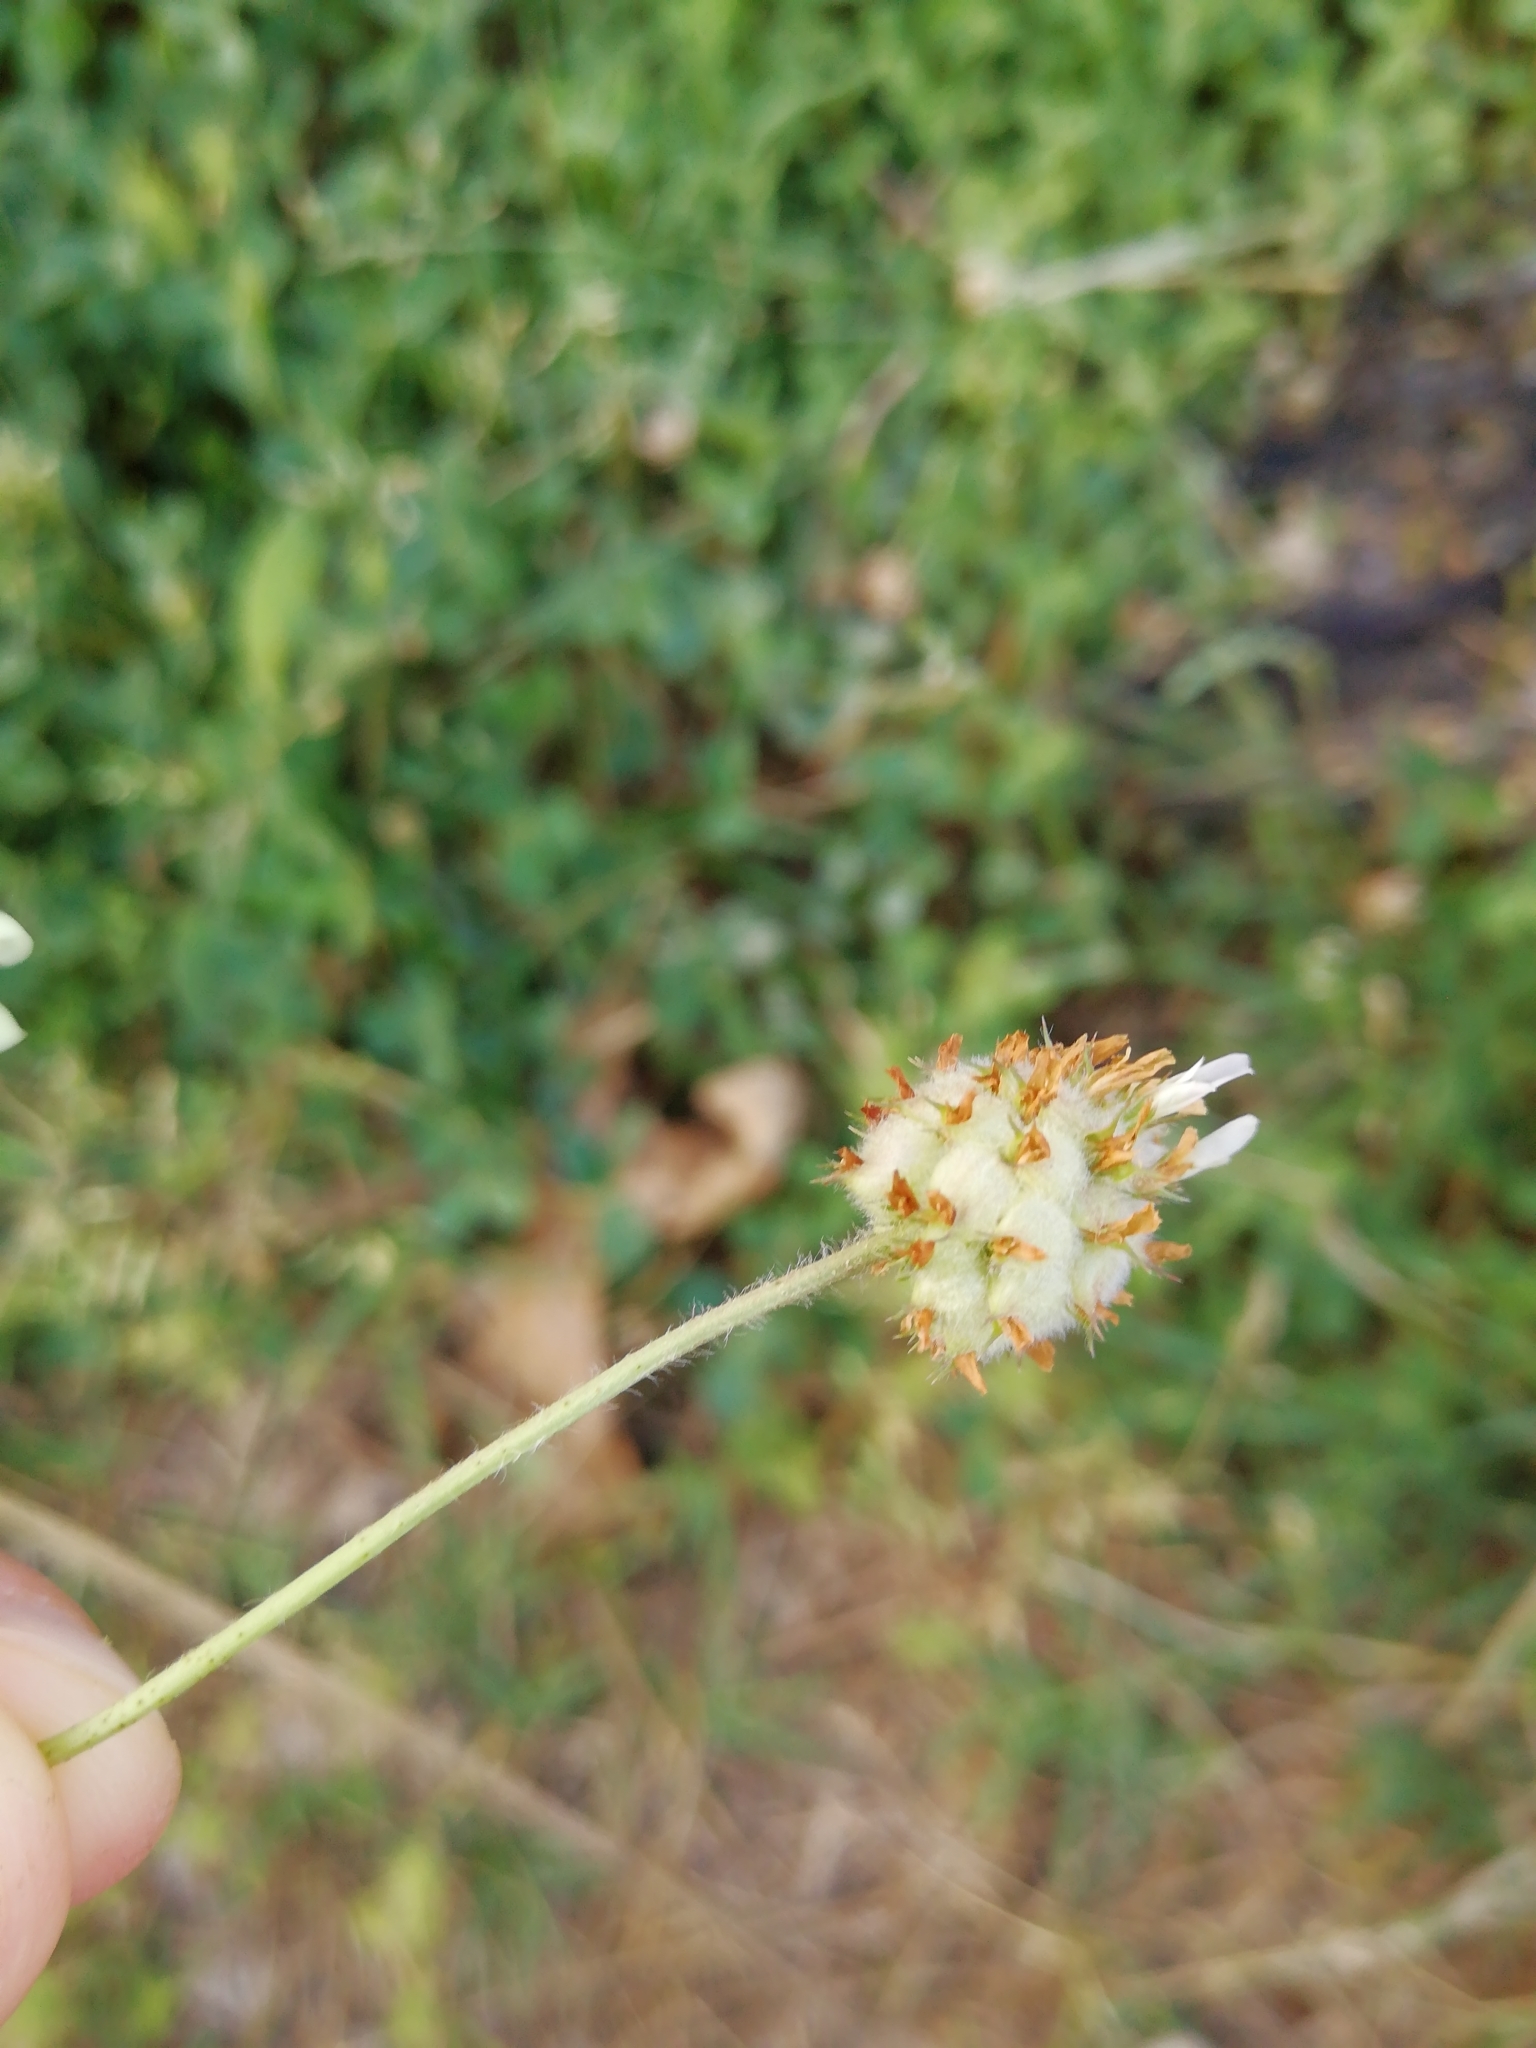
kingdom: Plantae
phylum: Tracheophyta
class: Magnoliopsida
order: Fabales
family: Fabaceae
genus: Trifolium
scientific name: Trifolium fragiferum
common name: Strawberry clover
